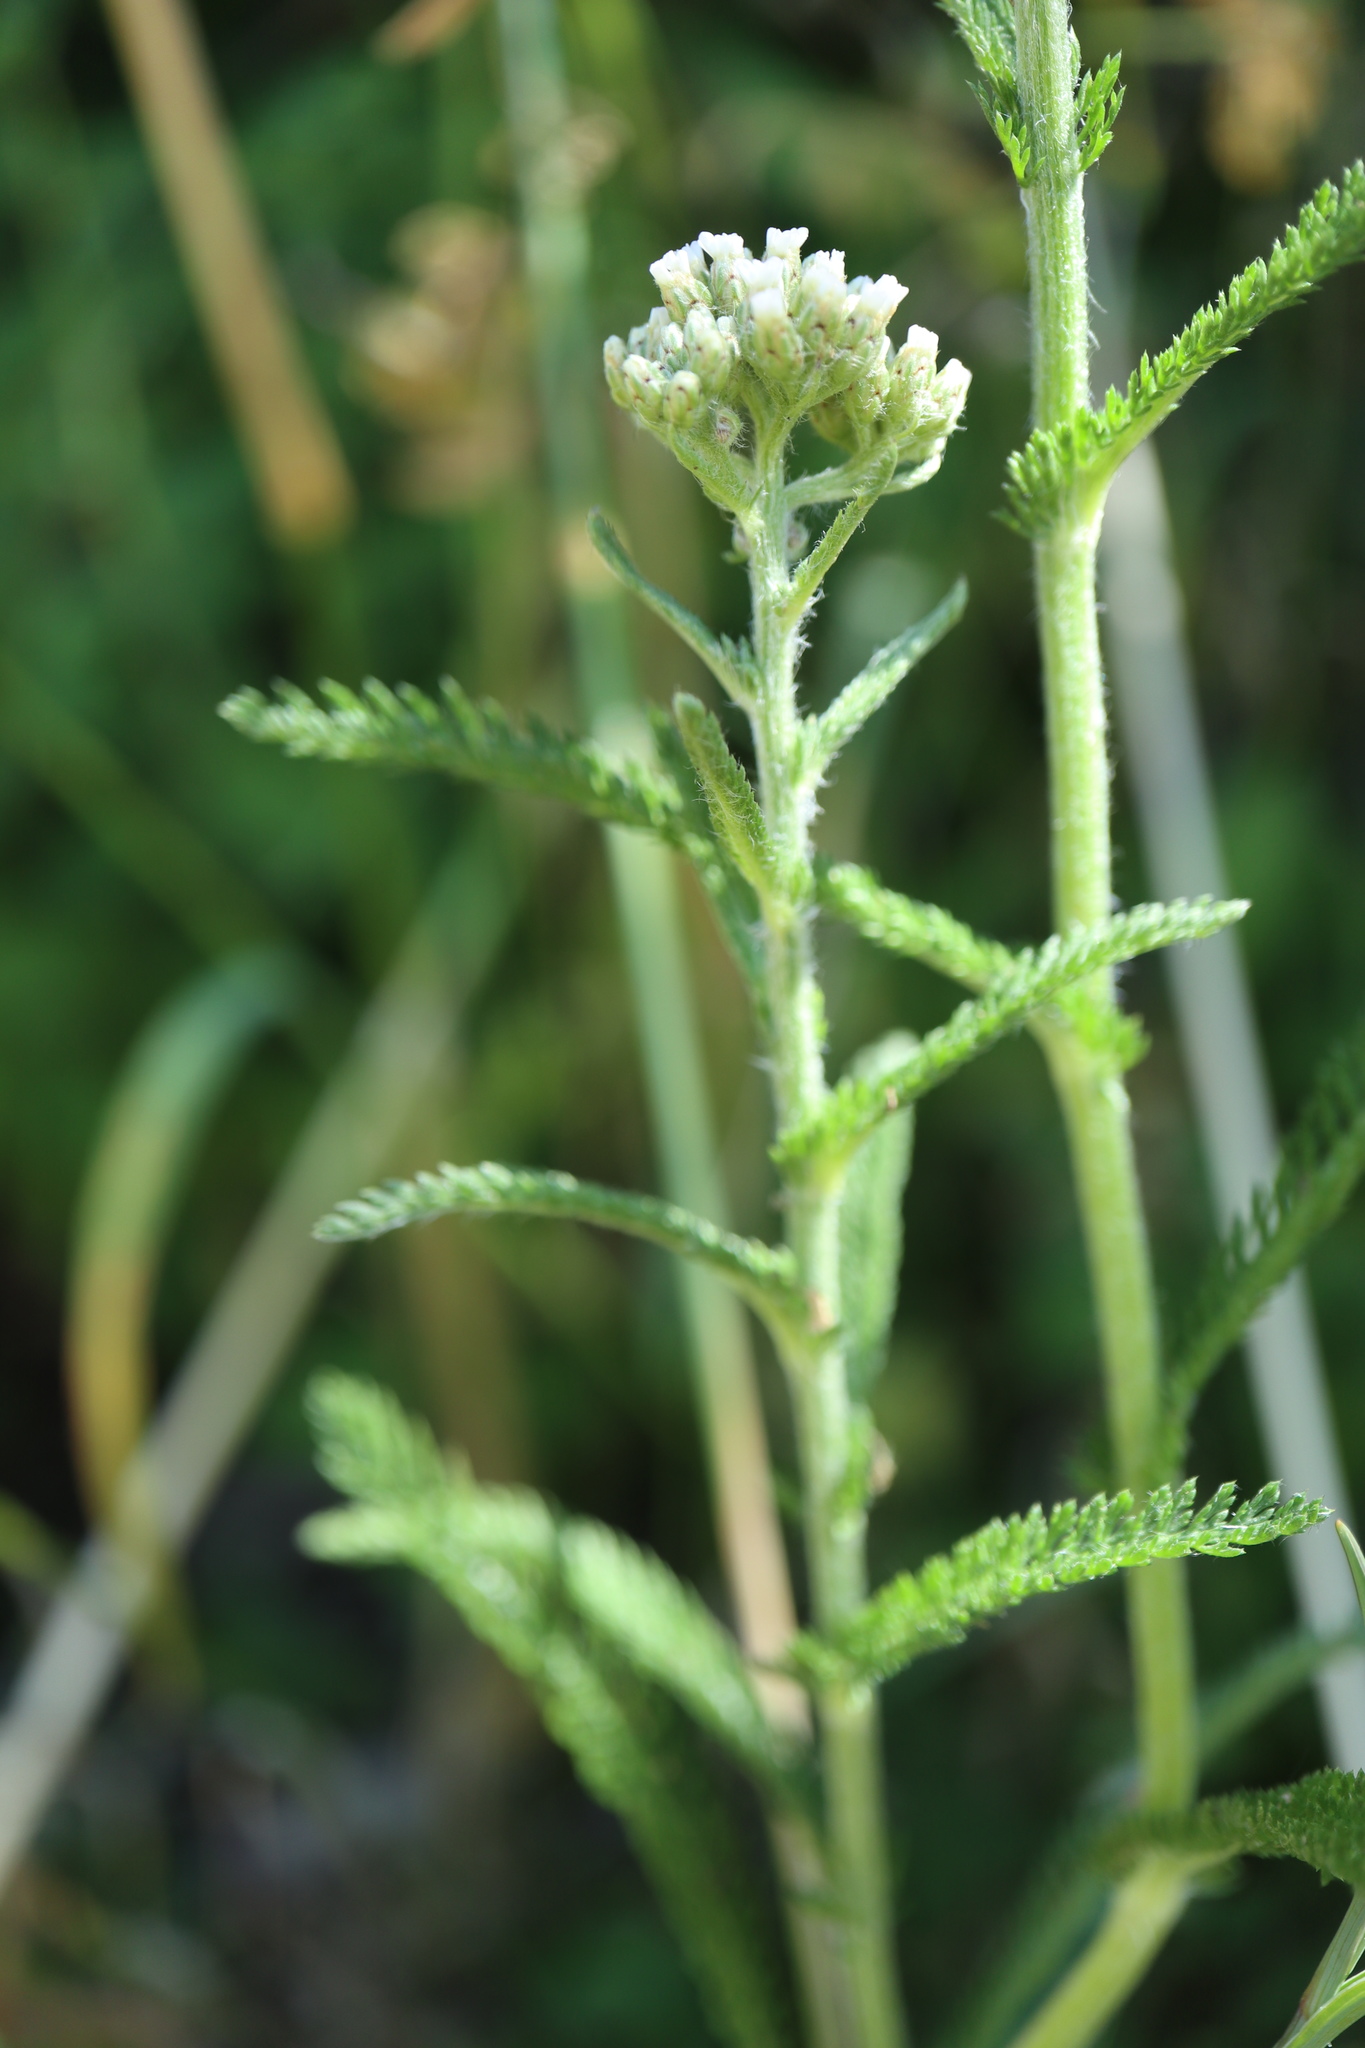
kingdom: Plantae
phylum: Tracheophyta
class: Magnoliopsida
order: Asterales
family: Asteraceae
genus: Achillea
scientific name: Achillea millefolium
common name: Yarrow
